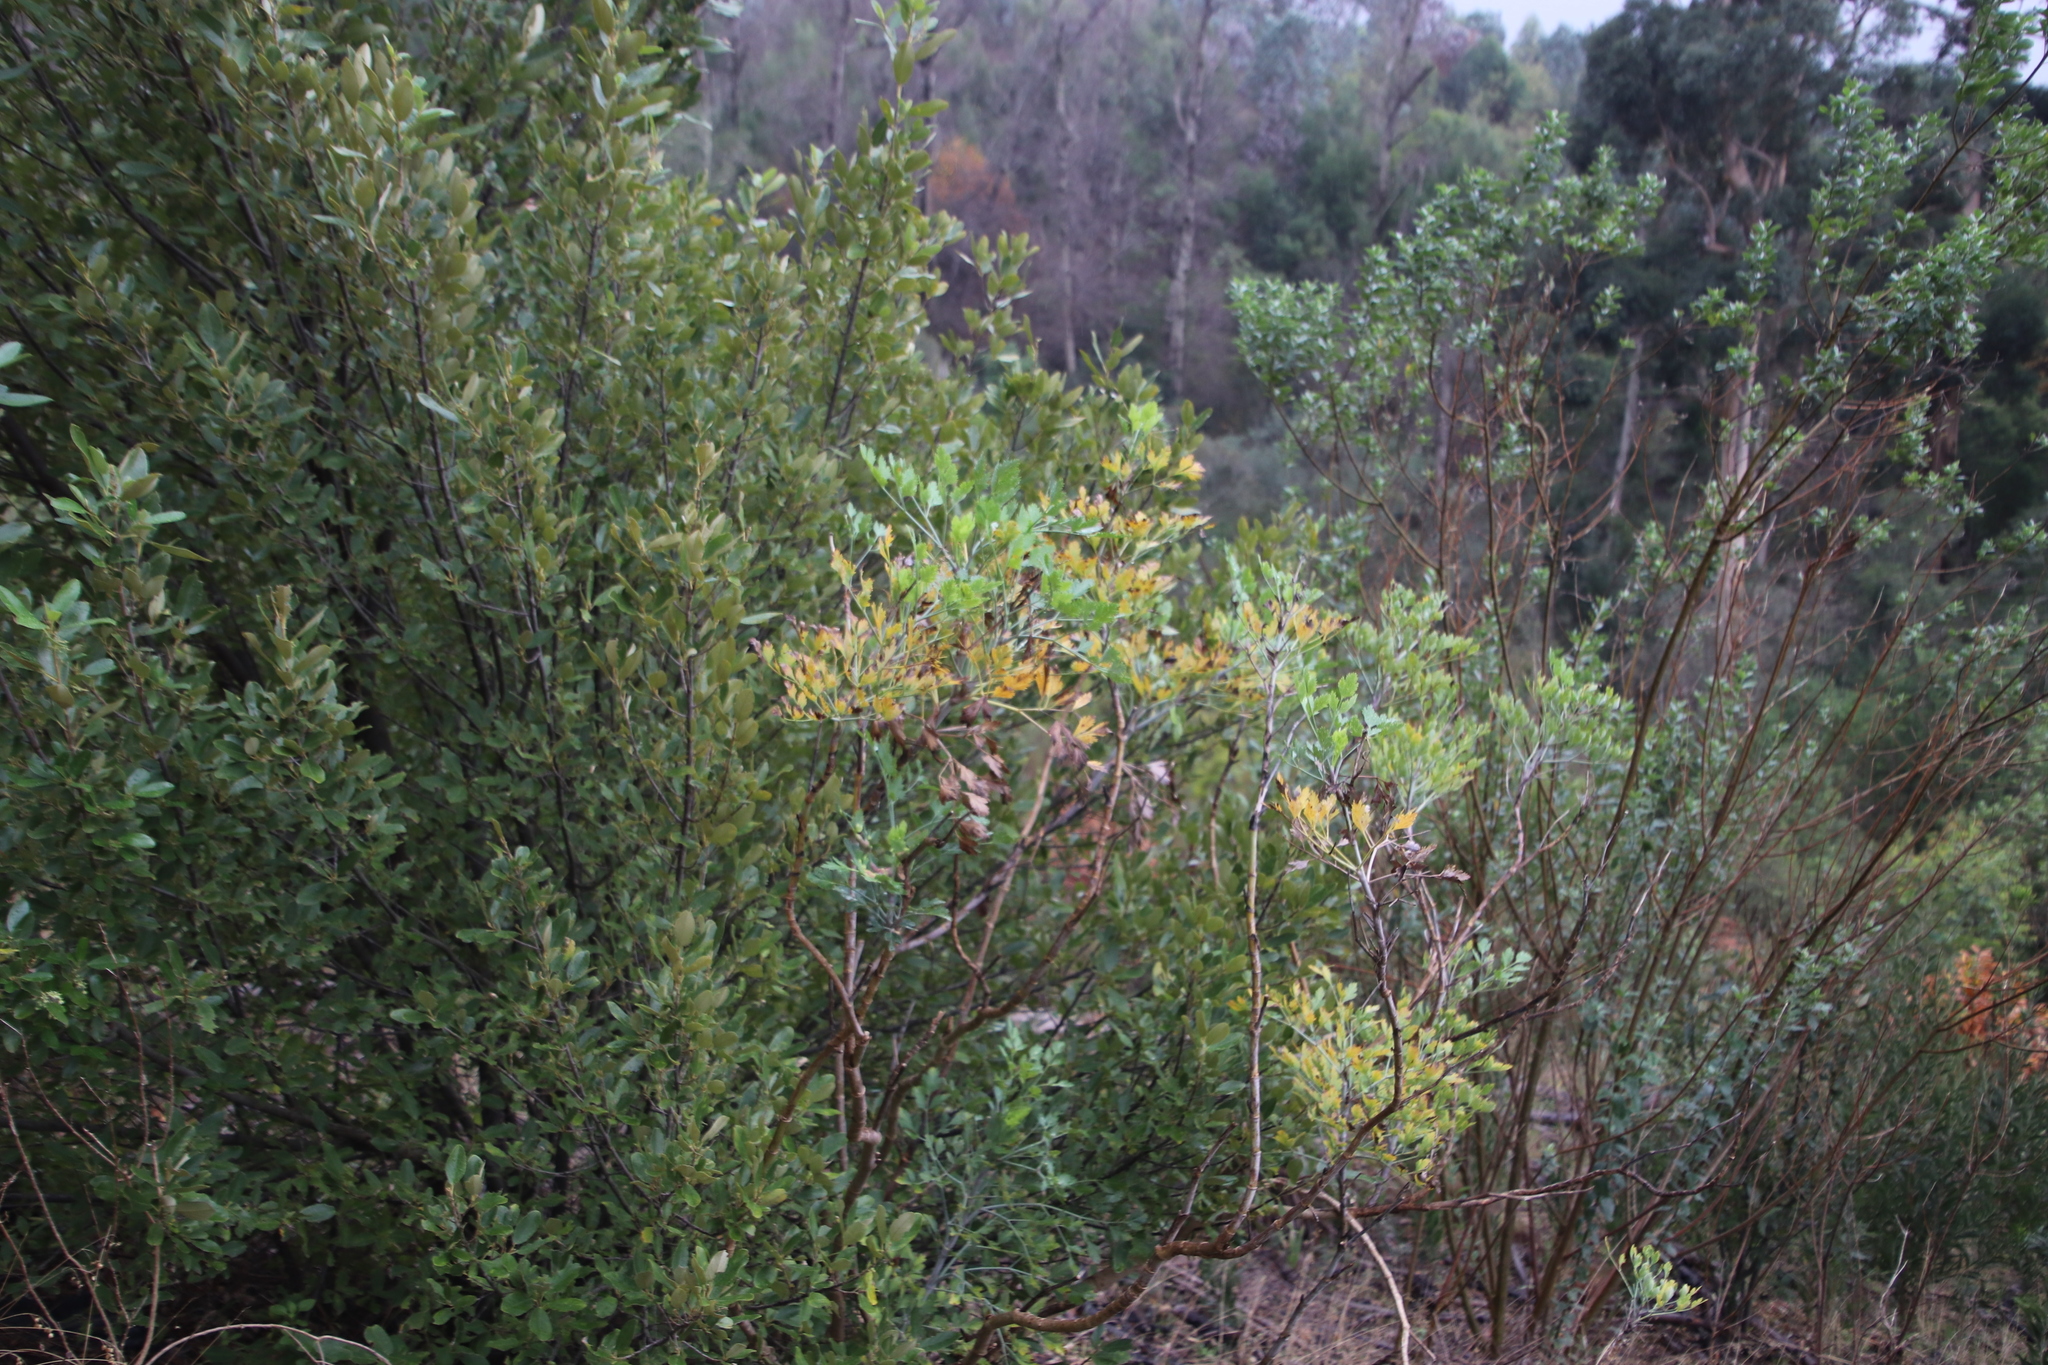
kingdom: Plantae
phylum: Tracheophyta
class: Magnoliopsida
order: Apiales
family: Apiaceae
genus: Notobubon
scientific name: Notobubon galbanum
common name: Blisterbush
